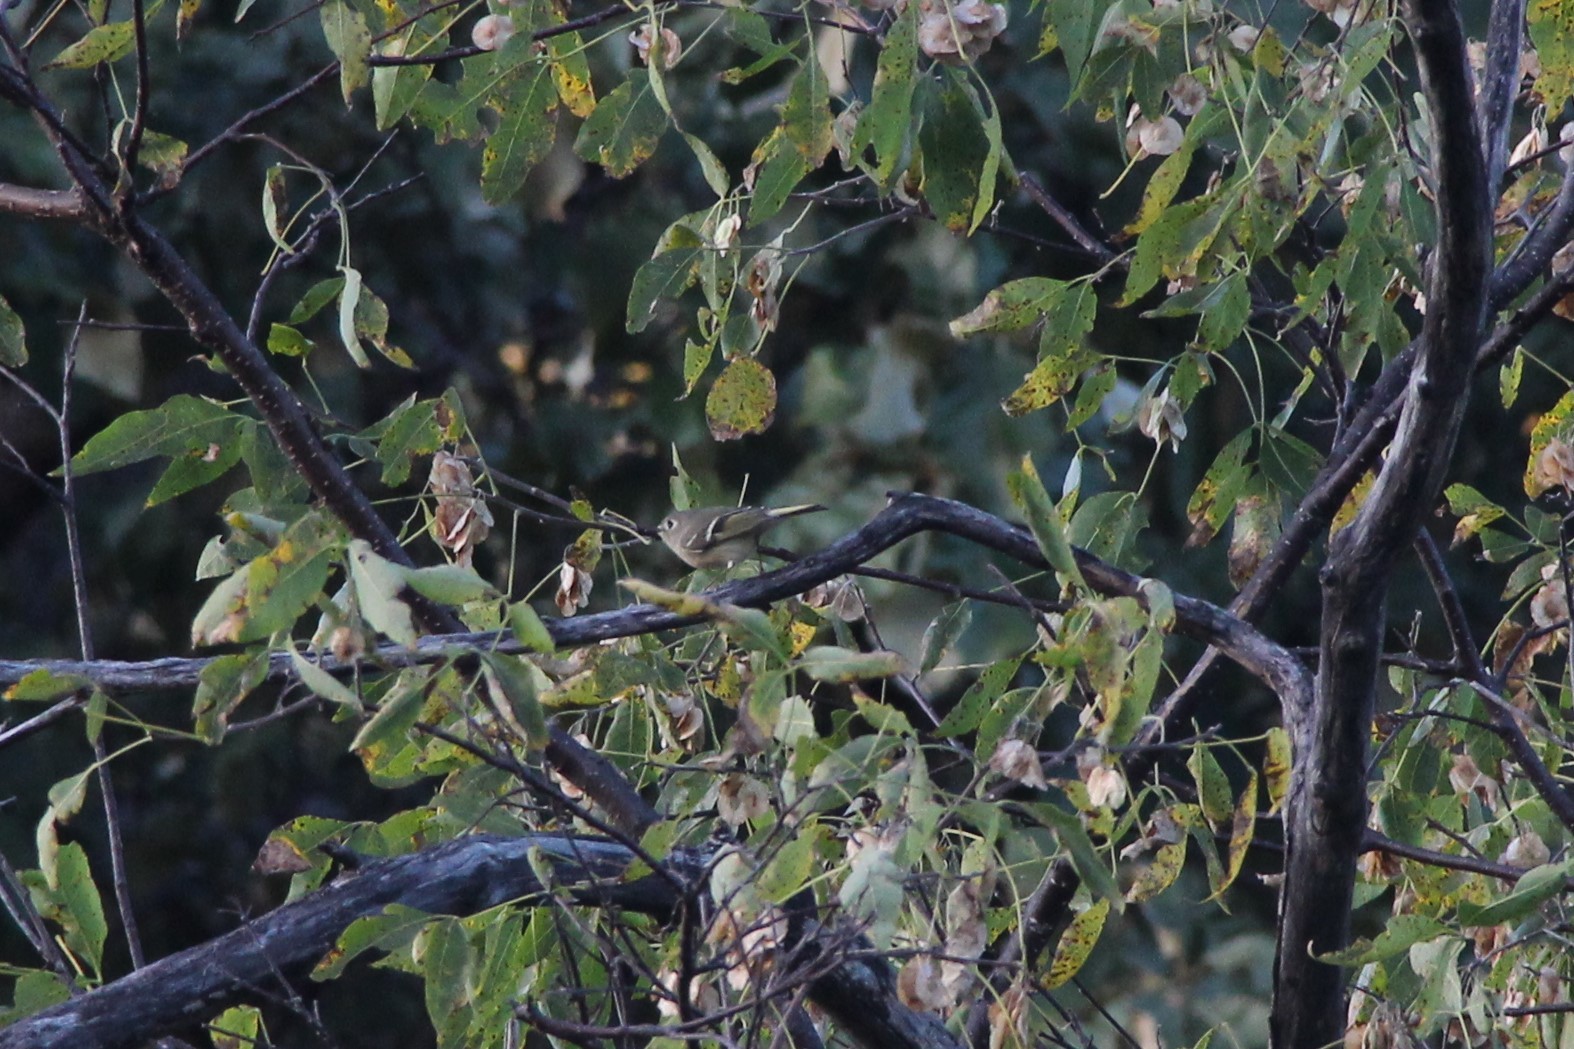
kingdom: Animalia
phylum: Chordata
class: Aves
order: Passeriformes
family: Regulidae
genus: Regulus
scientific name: Regulus calendula
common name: Ruby-crowned kinglet
